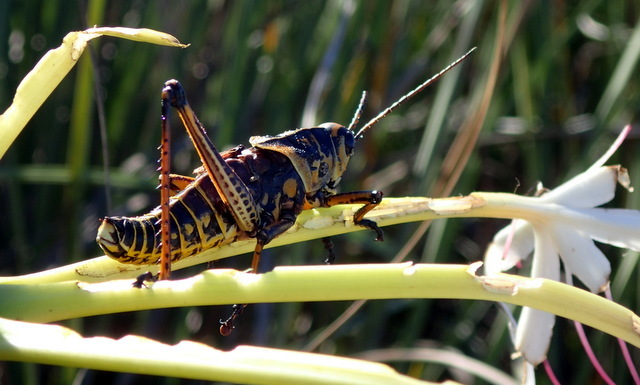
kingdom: Animalia
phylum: Arthropoda
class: Insecta
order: Orthoptera
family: Romaleidae
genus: Romalea
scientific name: Romalea microptera
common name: Eastern lubber grasshopper
